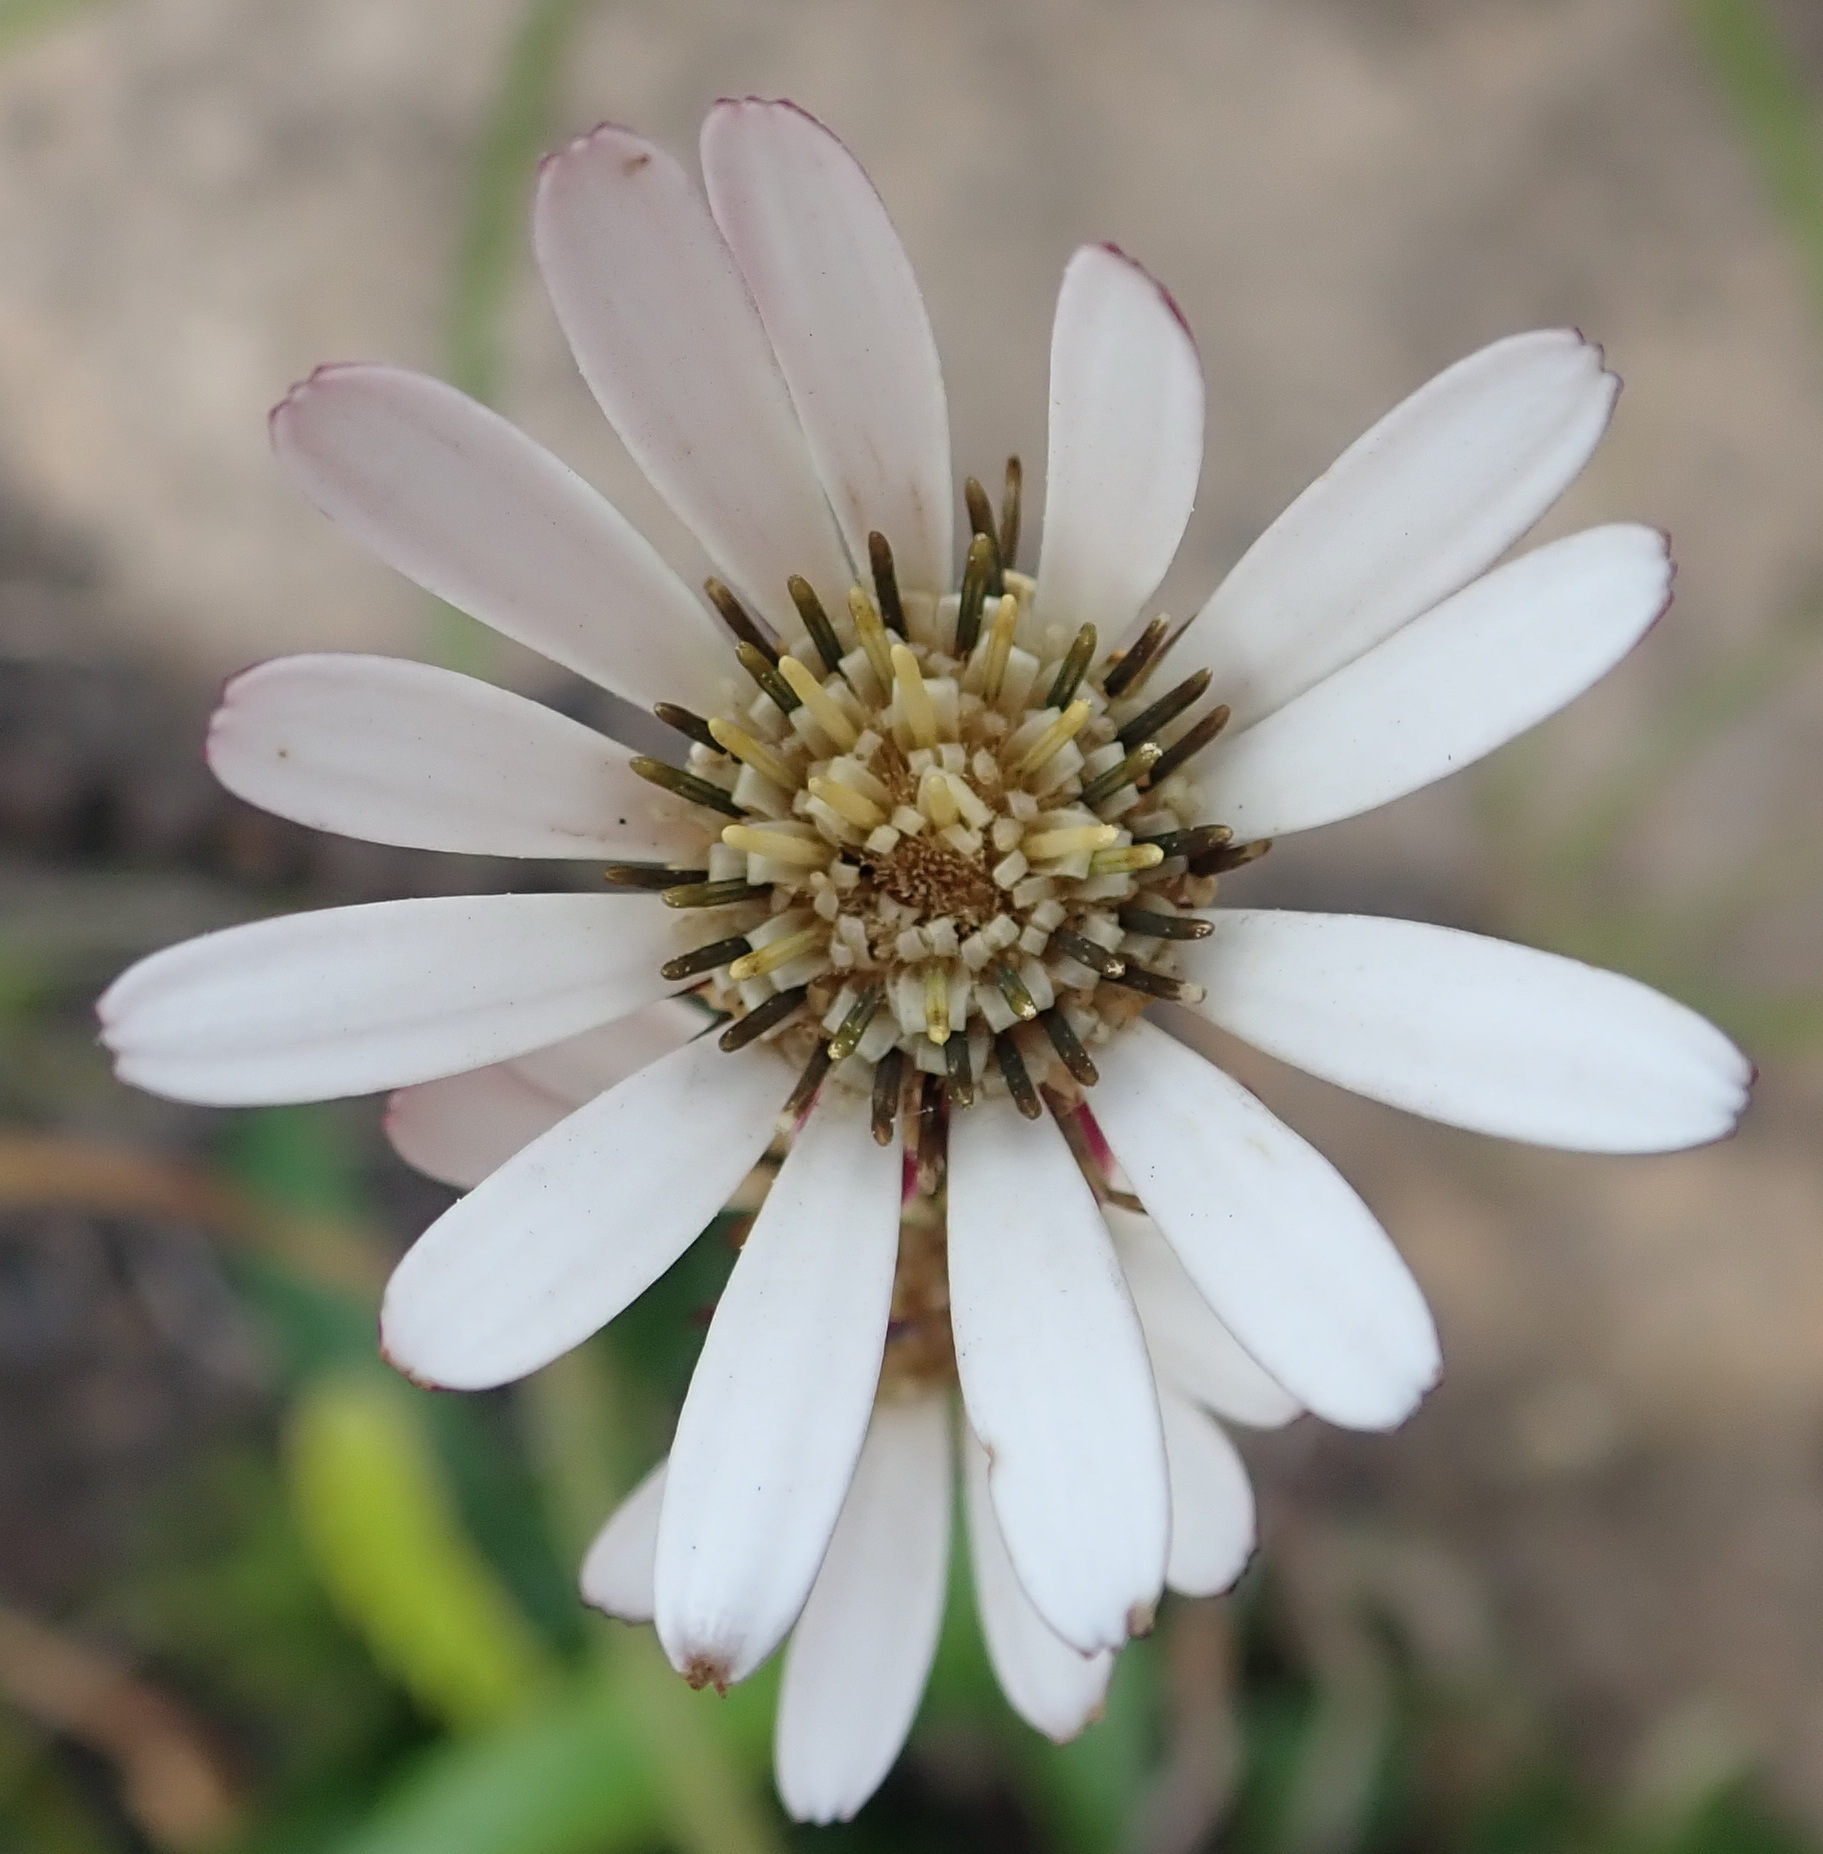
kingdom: Plantae
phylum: Tracheophyta
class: Magnoliopsida
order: Asterales
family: Asteraceae
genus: Gerbera
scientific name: Gerbera serrata
